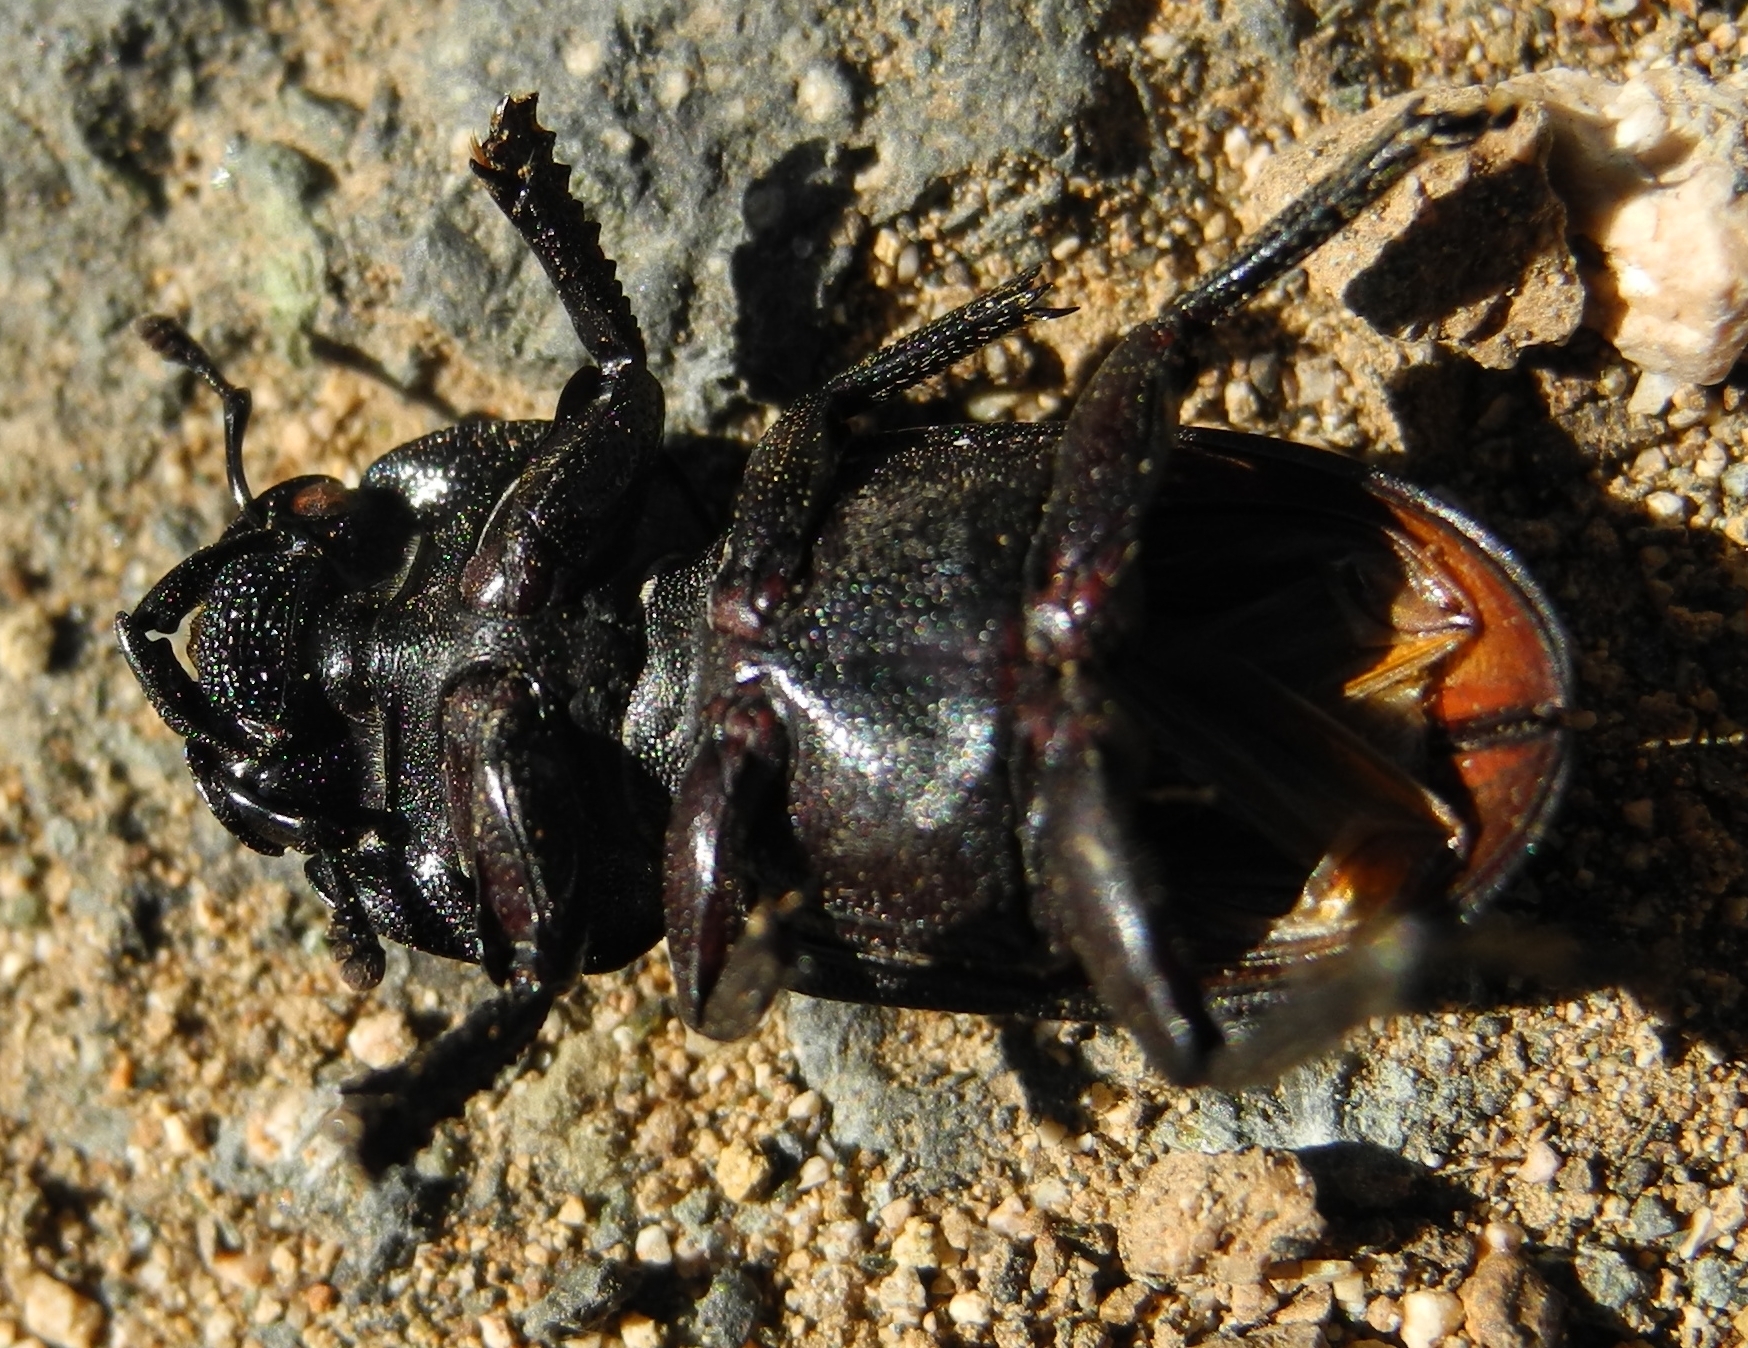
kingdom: Animalia
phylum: Arthropoda
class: Insecta
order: Coleoptera
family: Lucanidae
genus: Dorcus
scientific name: Dorcus parallelipipedus
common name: Lesser stag beetle
